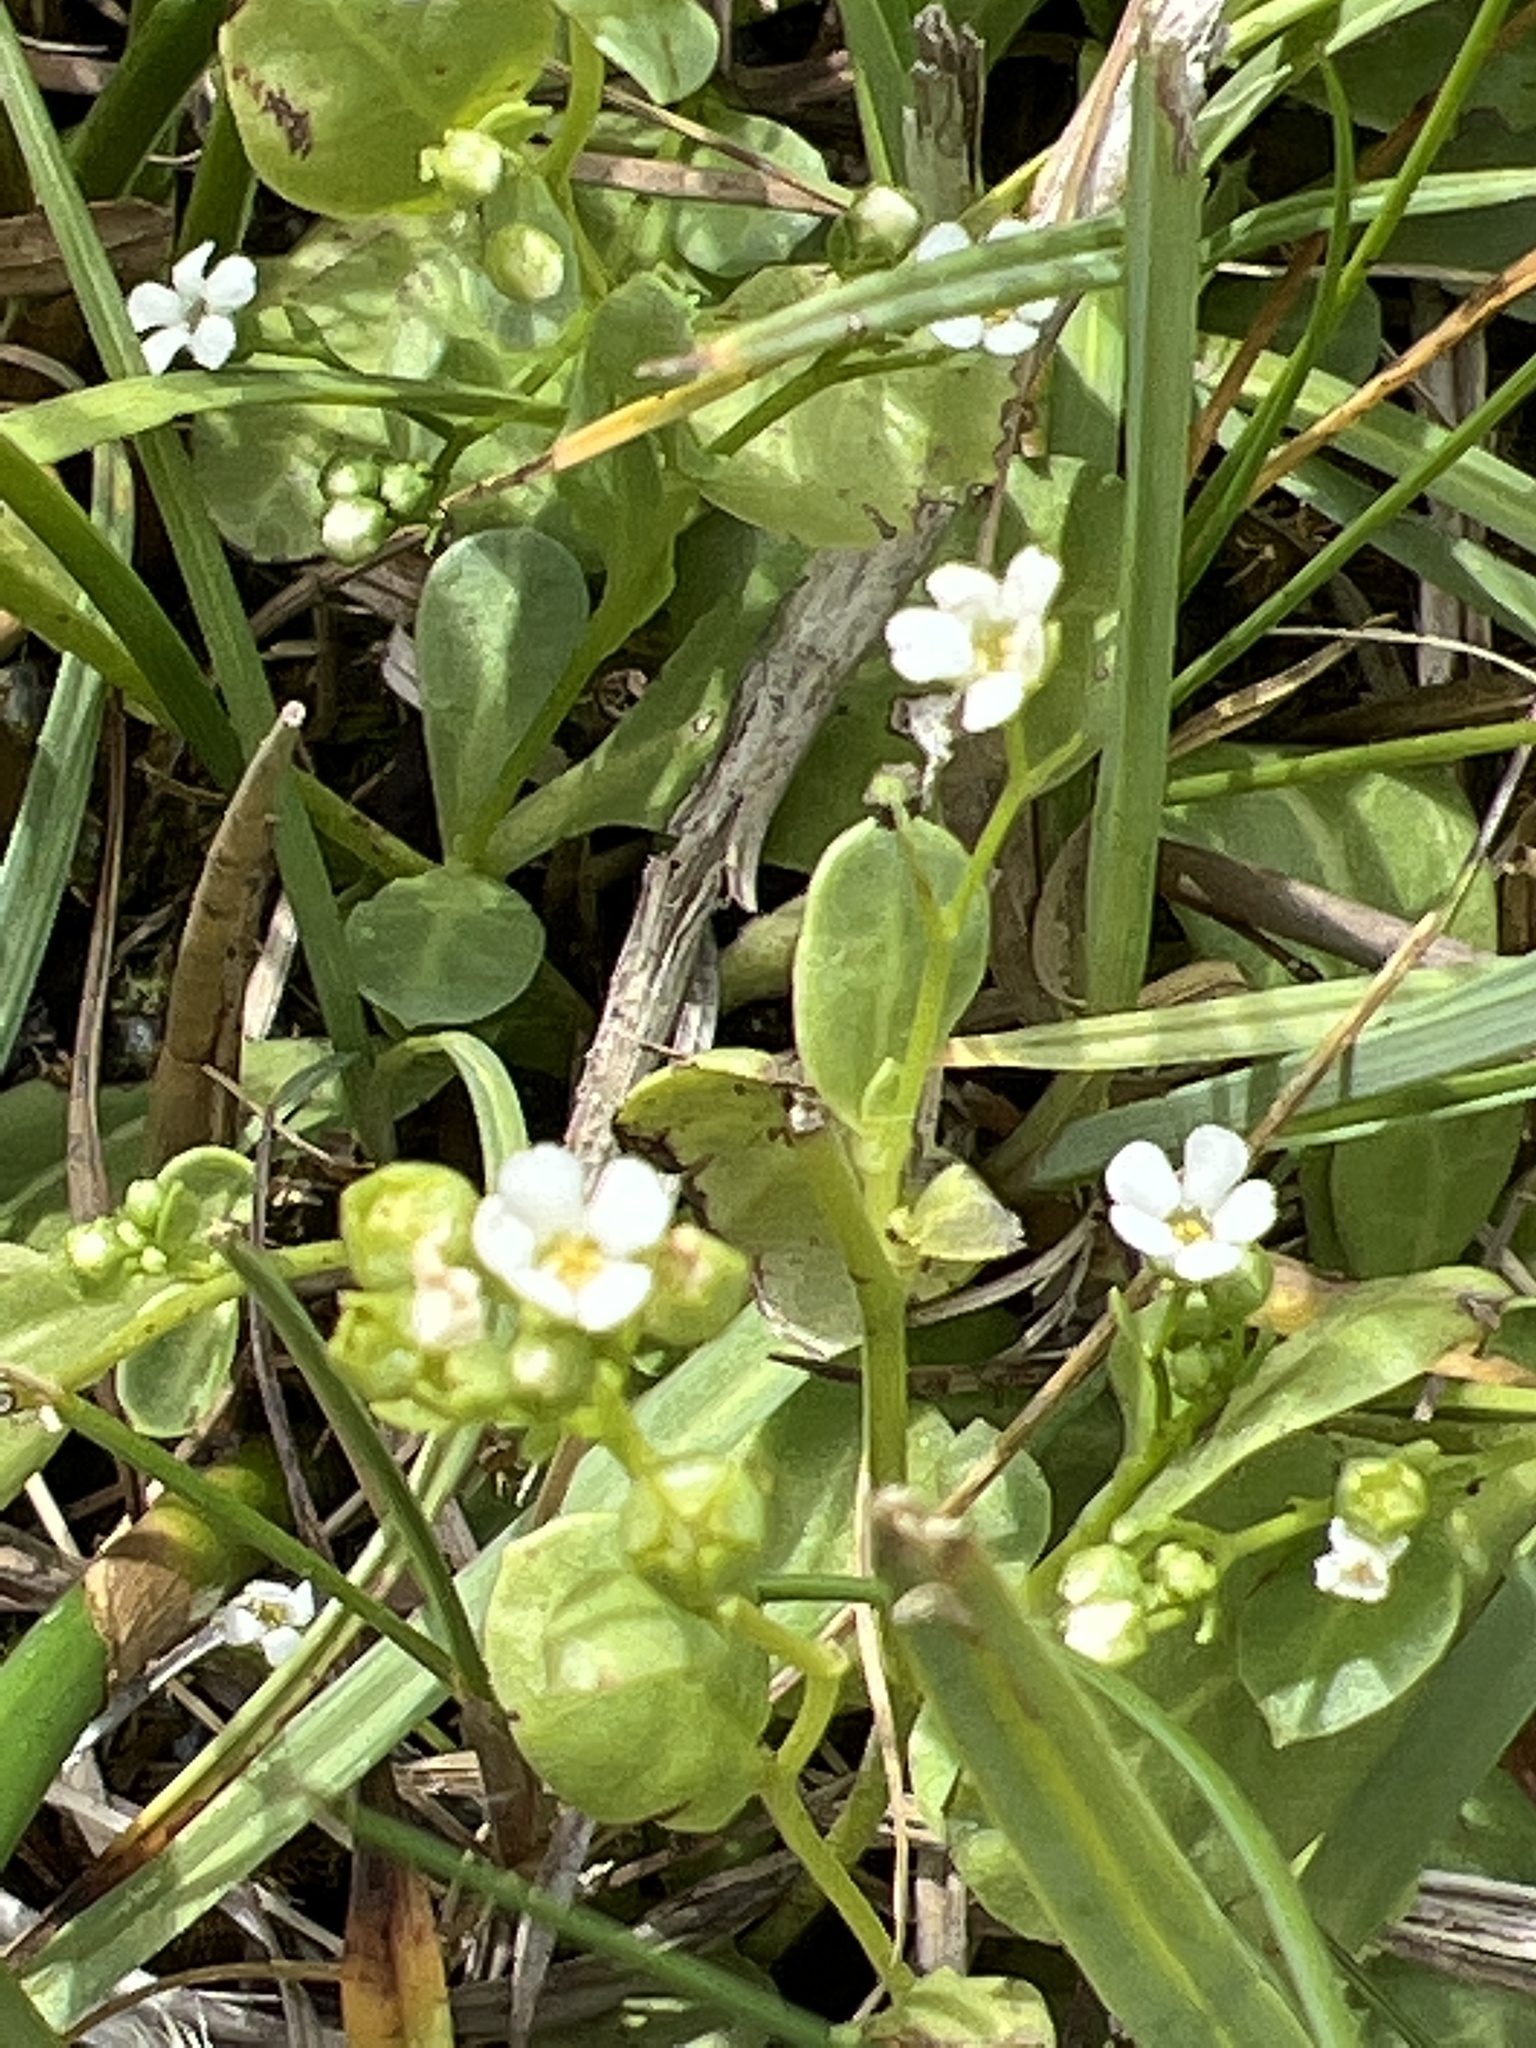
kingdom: Plantae
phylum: Tracheophyta
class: Magnoliopsida
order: Ericales
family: Primulaceae
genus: Samolus
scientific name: Samolus valerandi
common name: Brookweed
